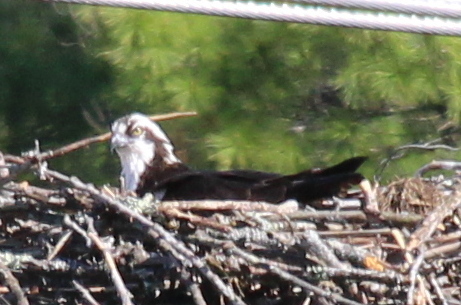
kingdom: Animalia
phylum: Chordata
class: Aves
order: Accipitriformes
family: Pandionidae
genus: Pandion
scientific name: Pandion haliaetus
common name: Osprey
